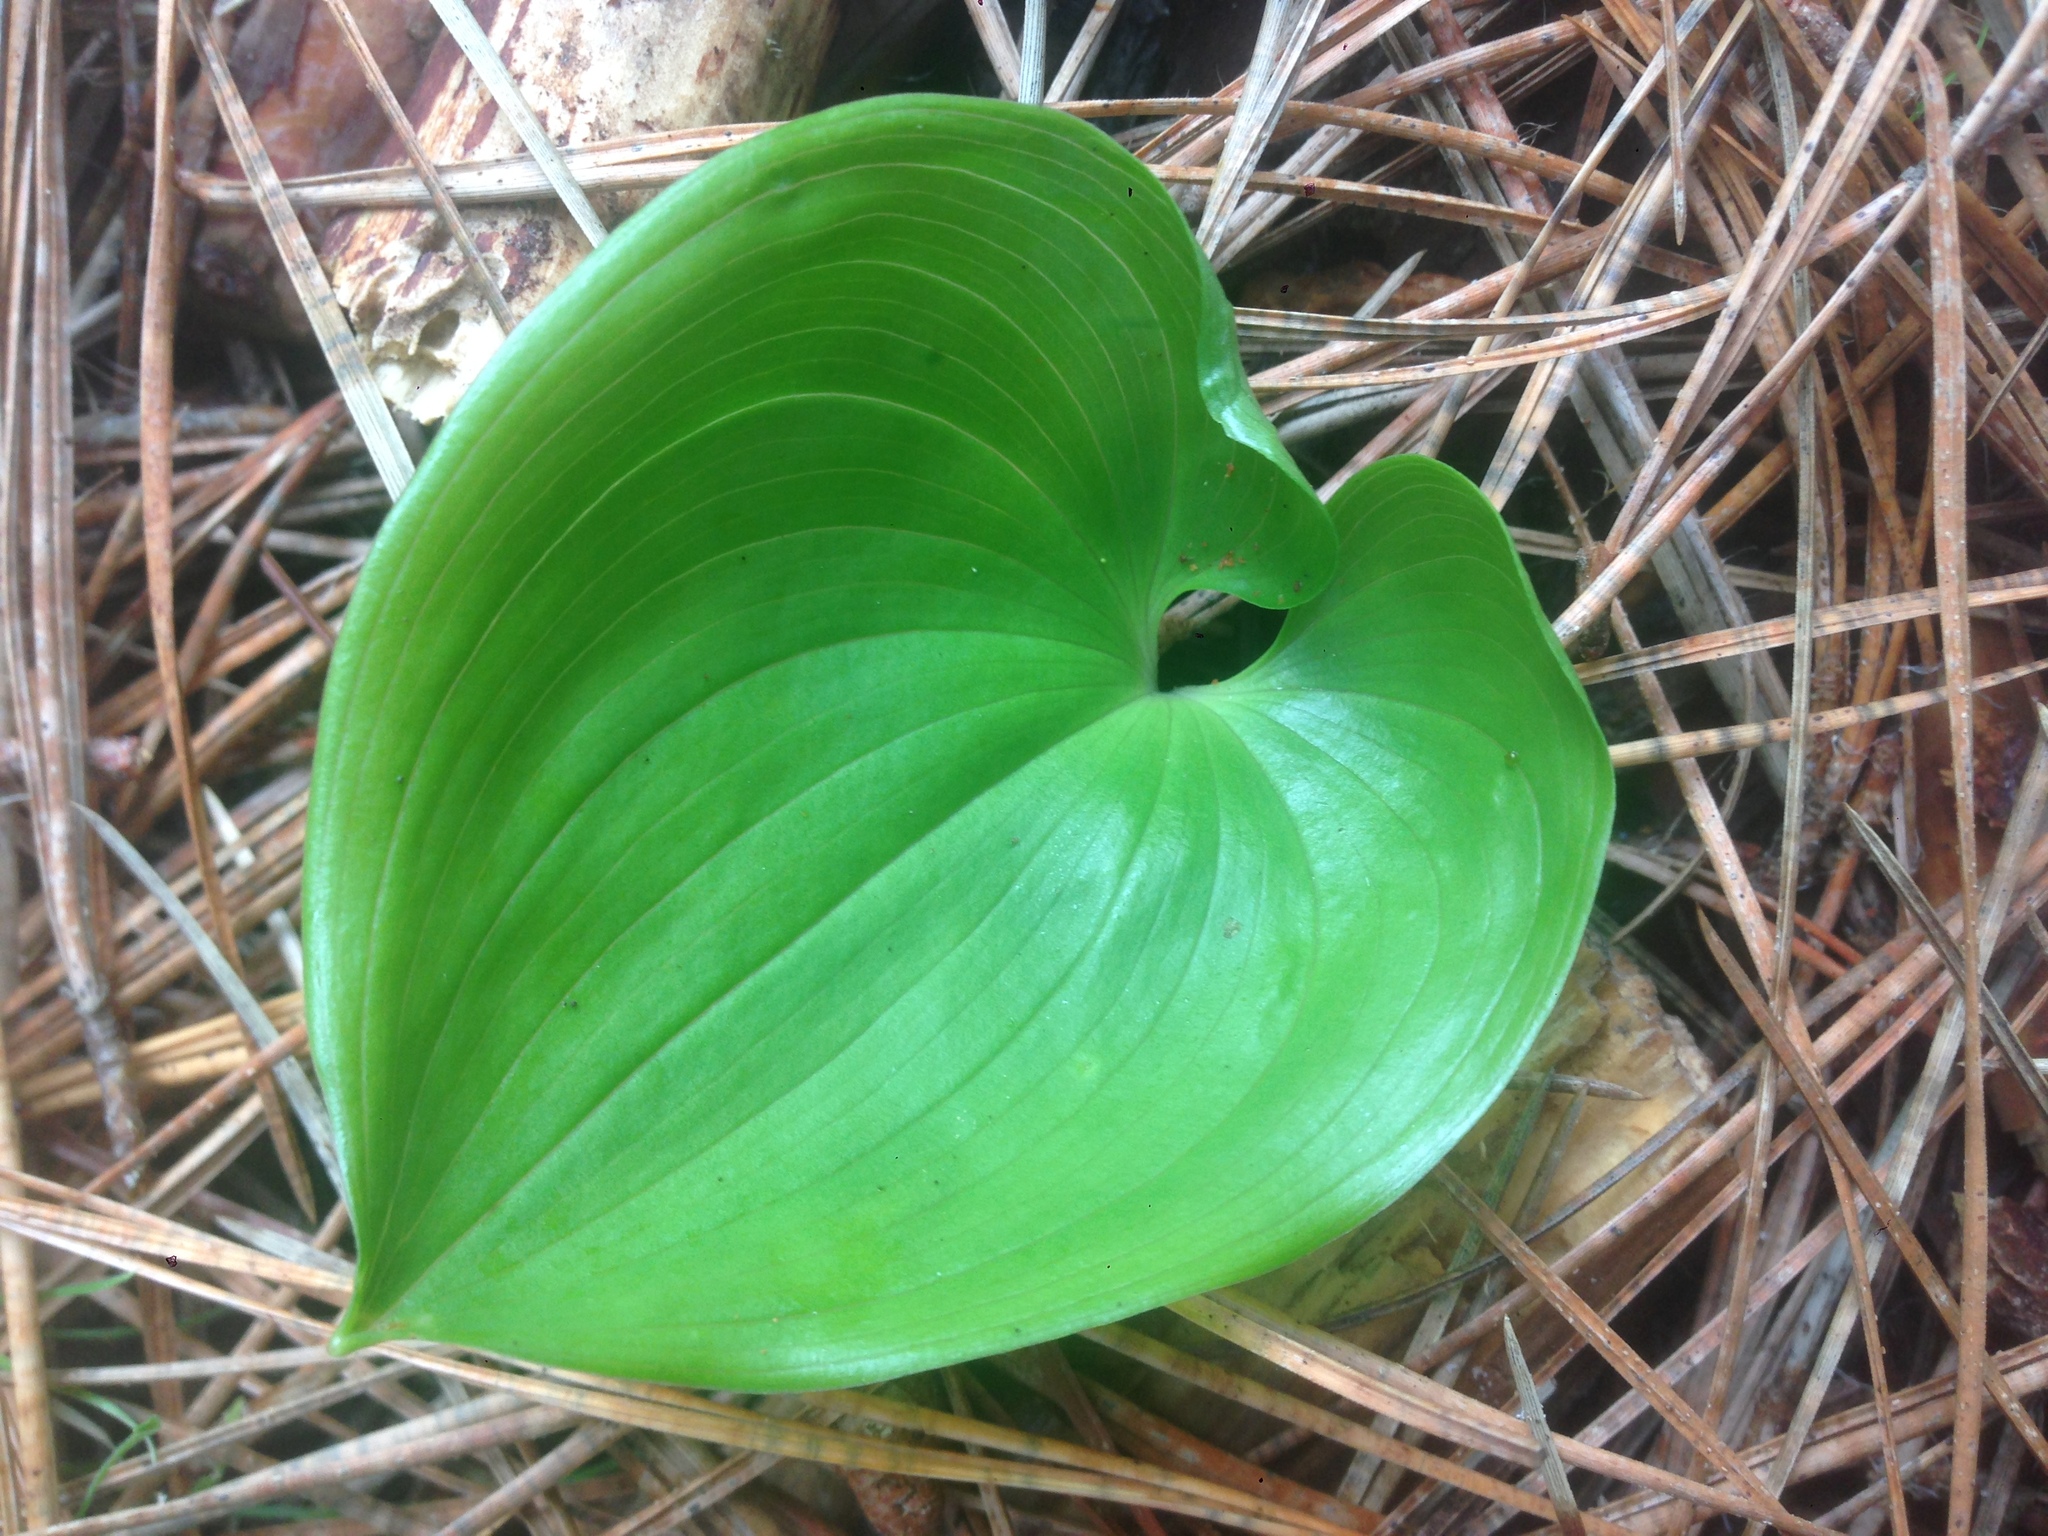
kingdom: Plantae
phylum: Tracheophyta
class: Liliopsida
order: Asparagales
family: Asparagaceae
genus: Maianthemum
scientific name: Maianthemum dilatatum
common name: False lily-of-the-valley
